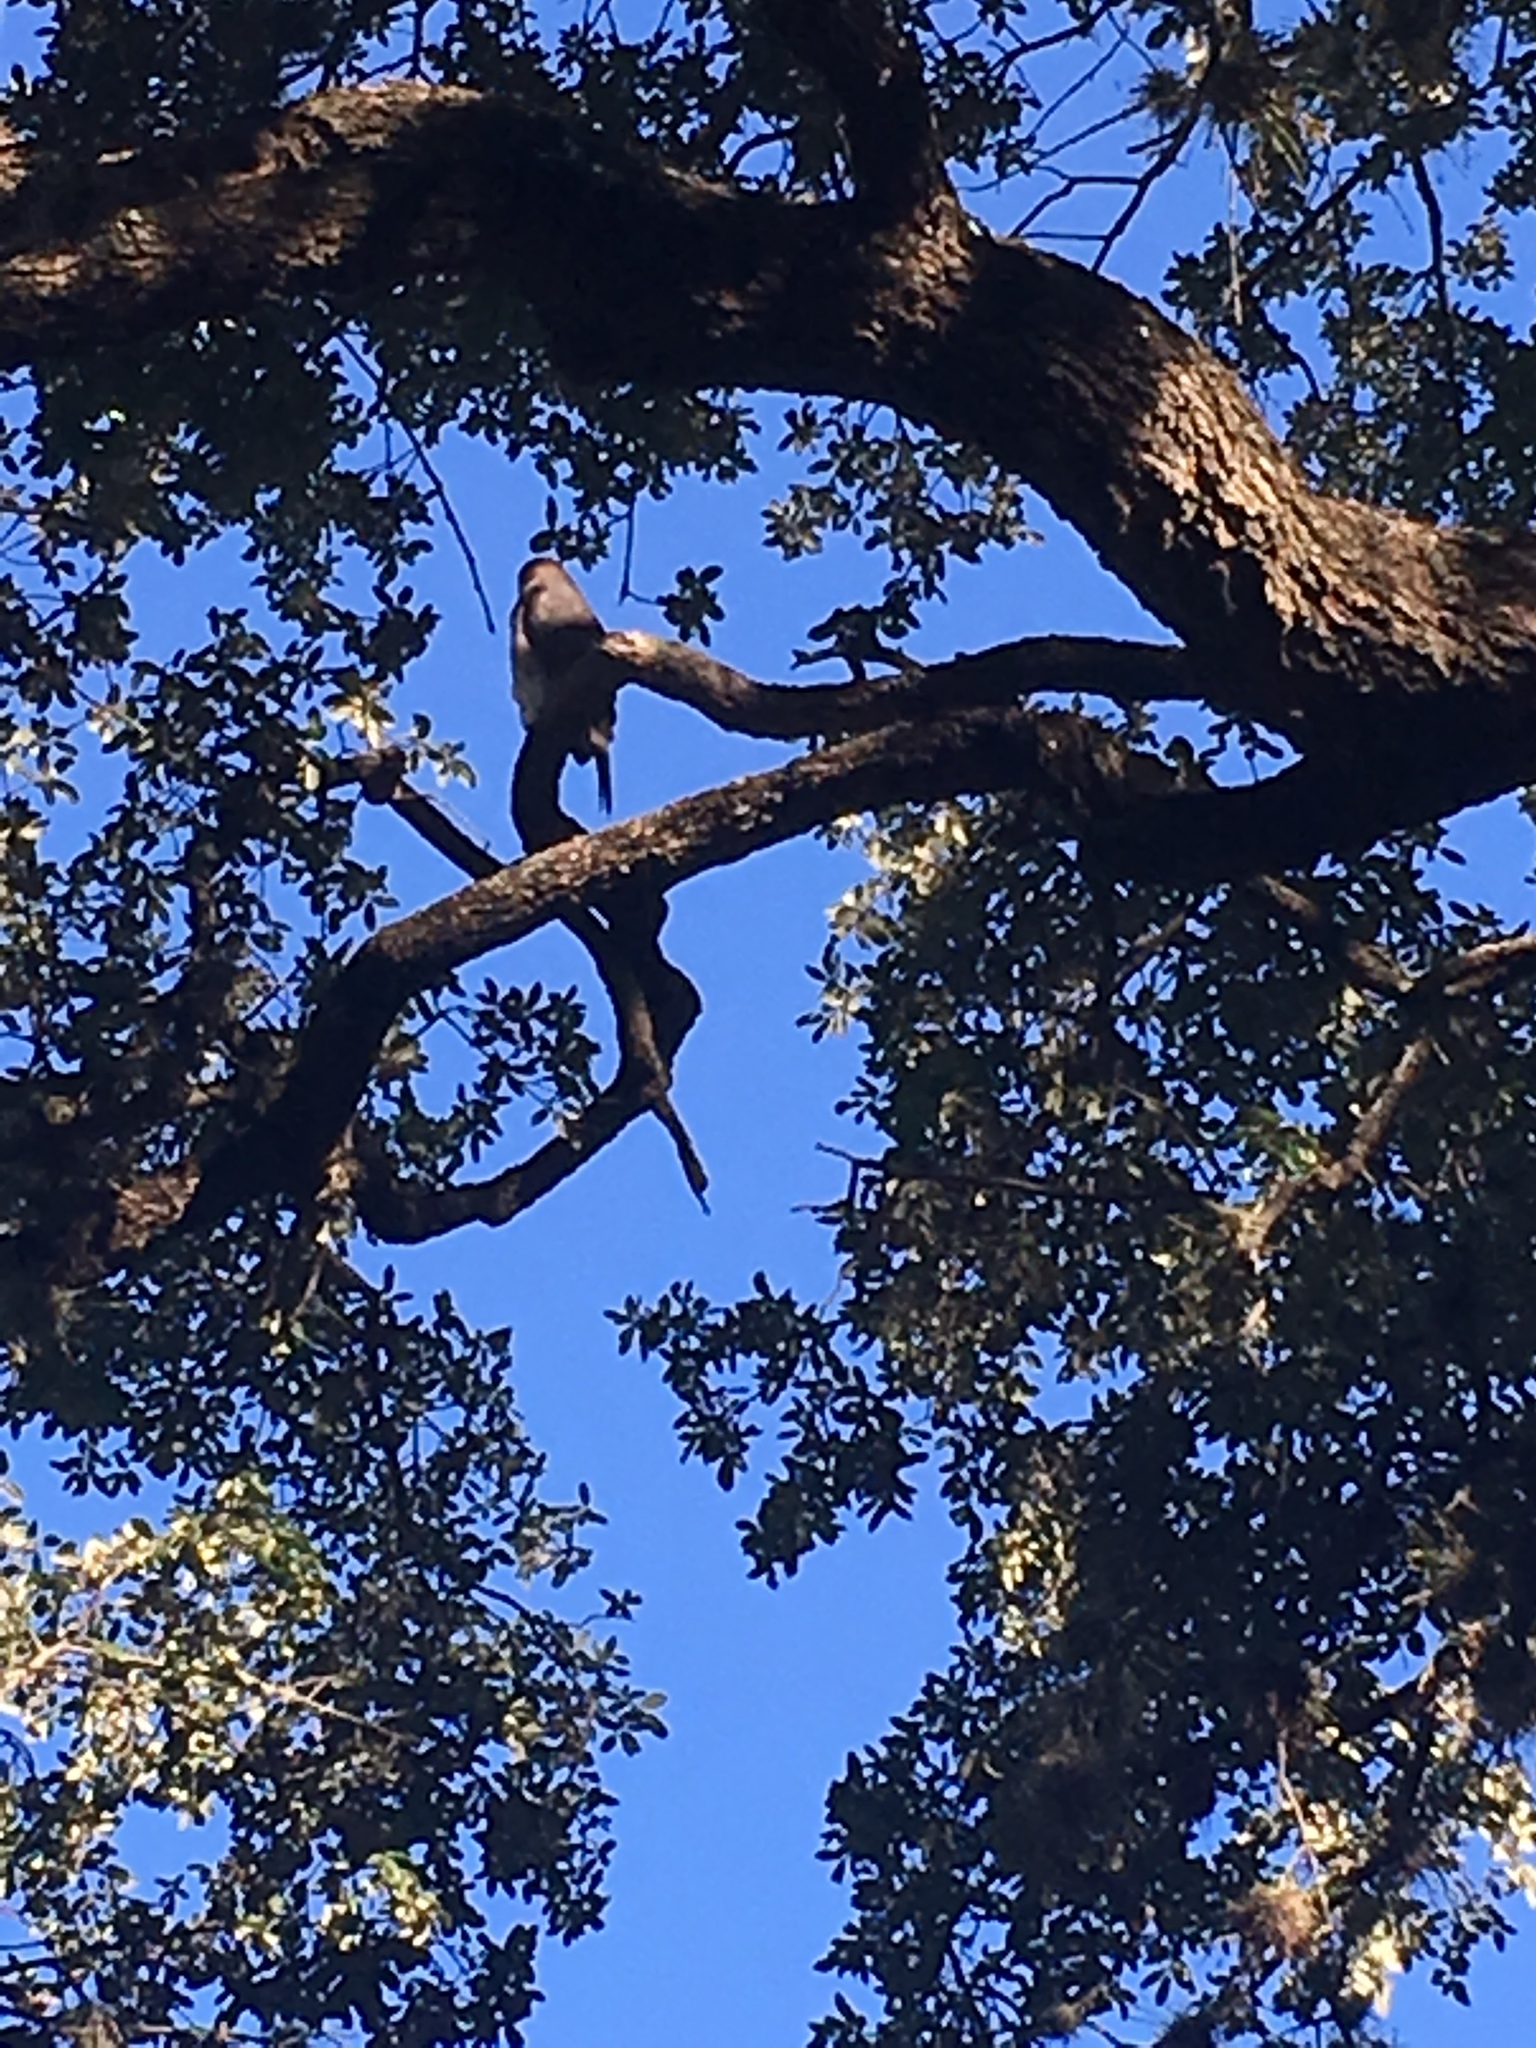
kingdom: Animalia
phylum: Chordata
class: Aves
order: Accipitriformes
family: Accipitridae
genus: Accipiter
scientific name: Accipiter cooperii
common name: Cooper's hawk
